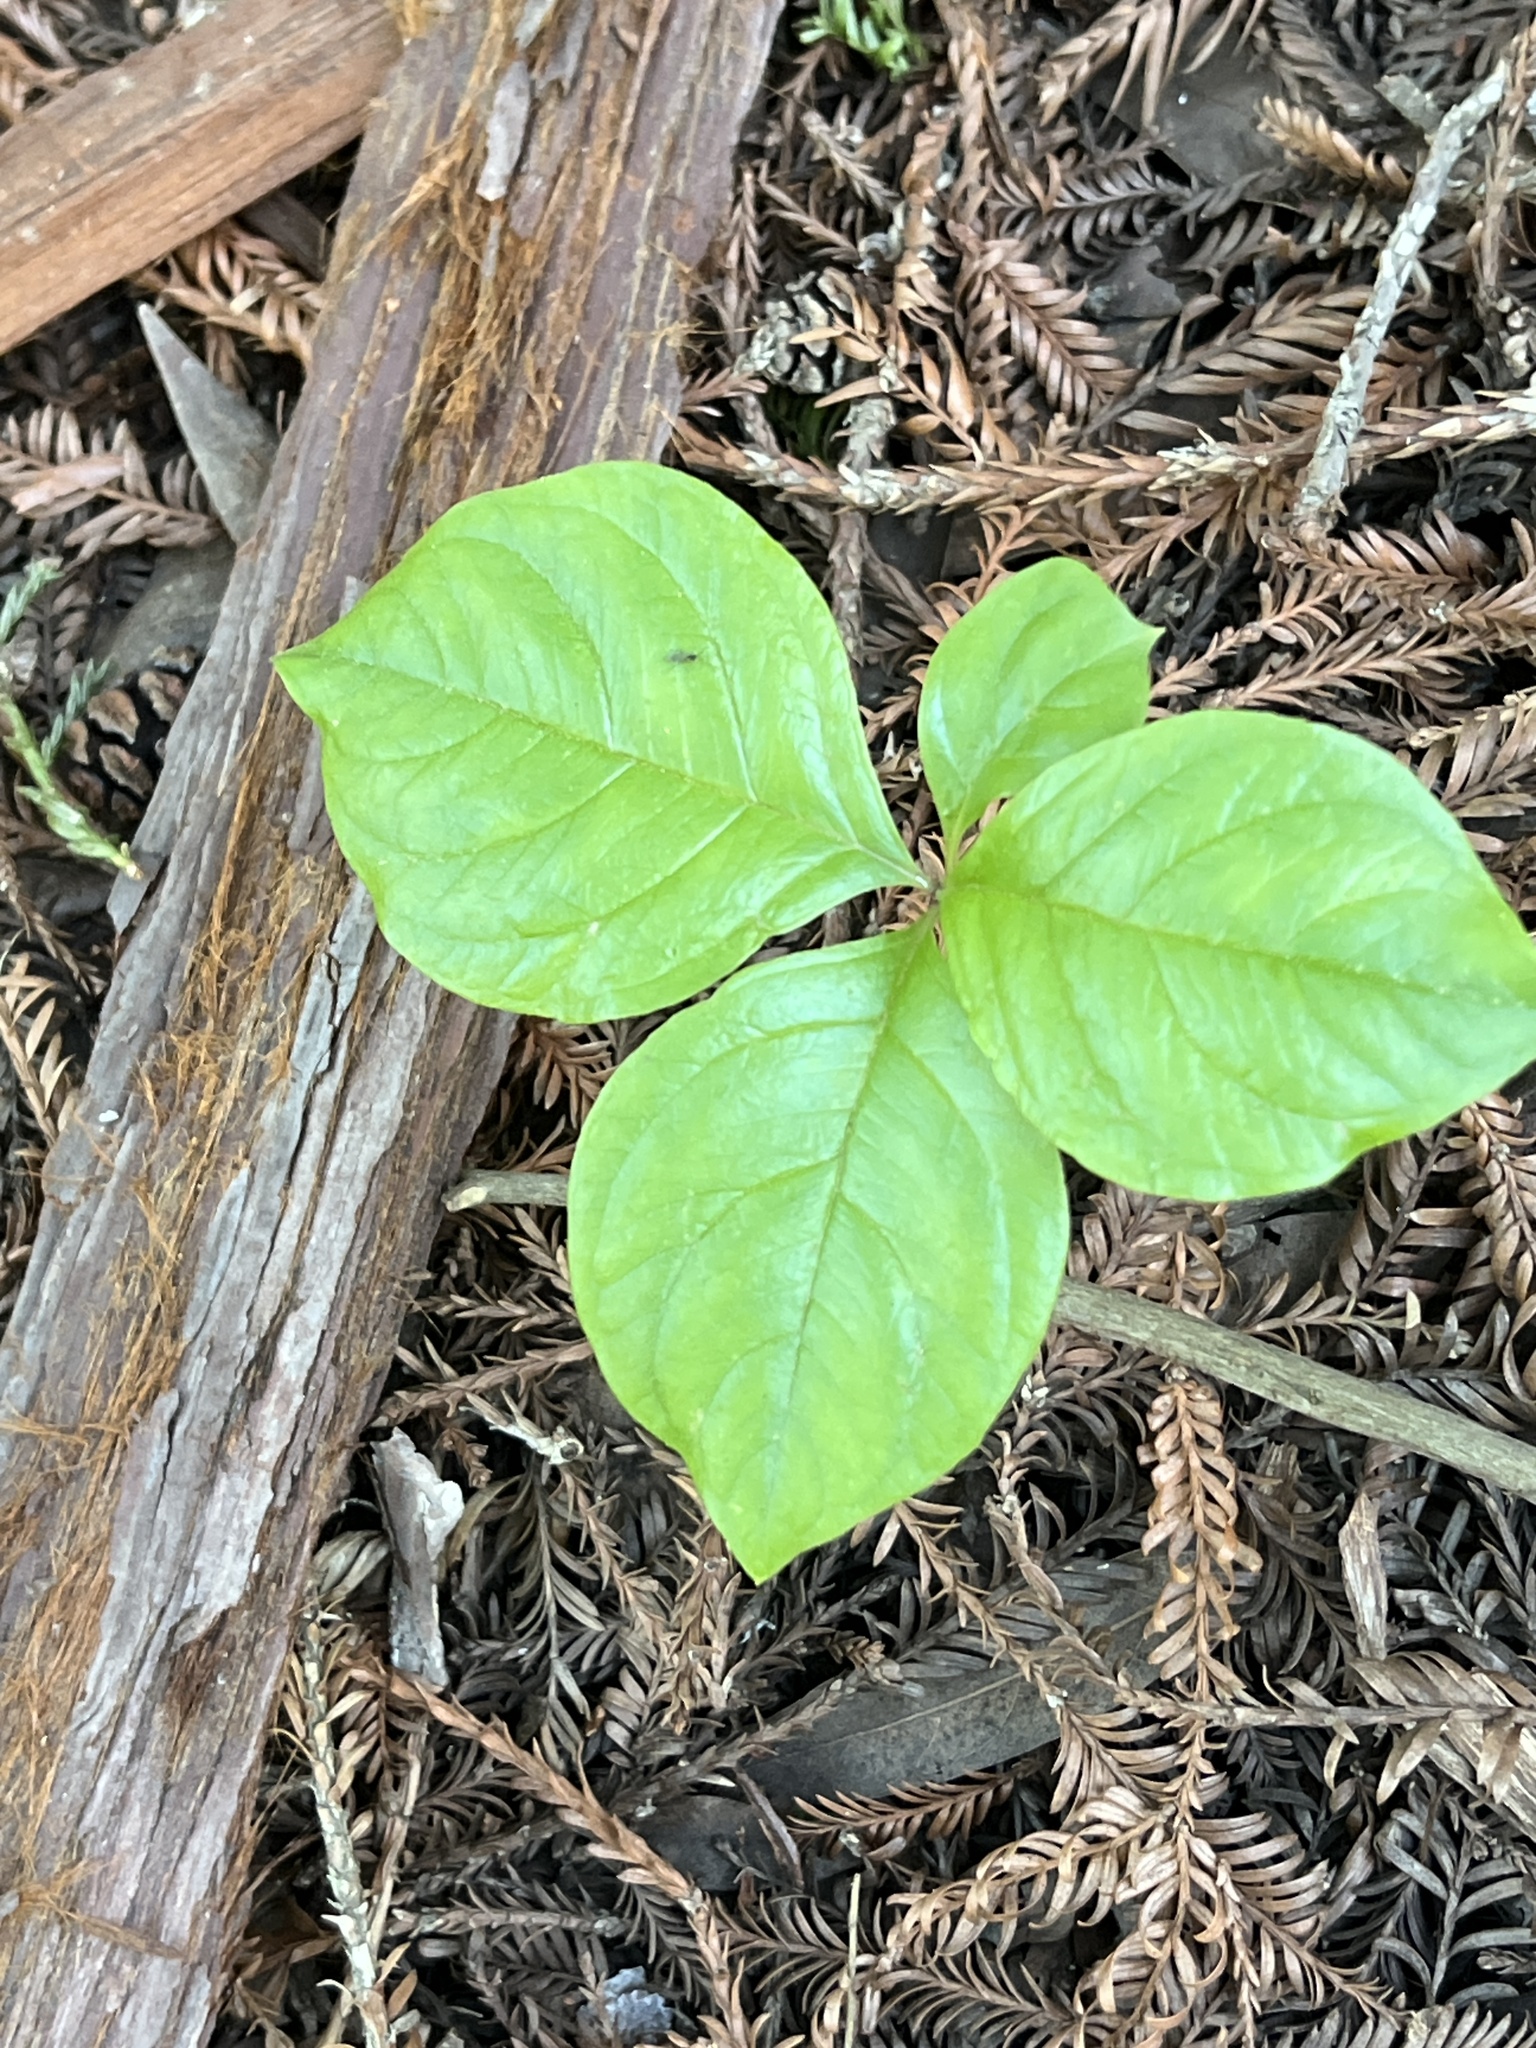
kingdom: Plantae
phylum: Tracheophyta
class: Magnoliopsida
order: Ericales
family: Primulaceae
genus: Lysimachia
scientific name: Lysimachia latifolia
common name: Pacific starflower
